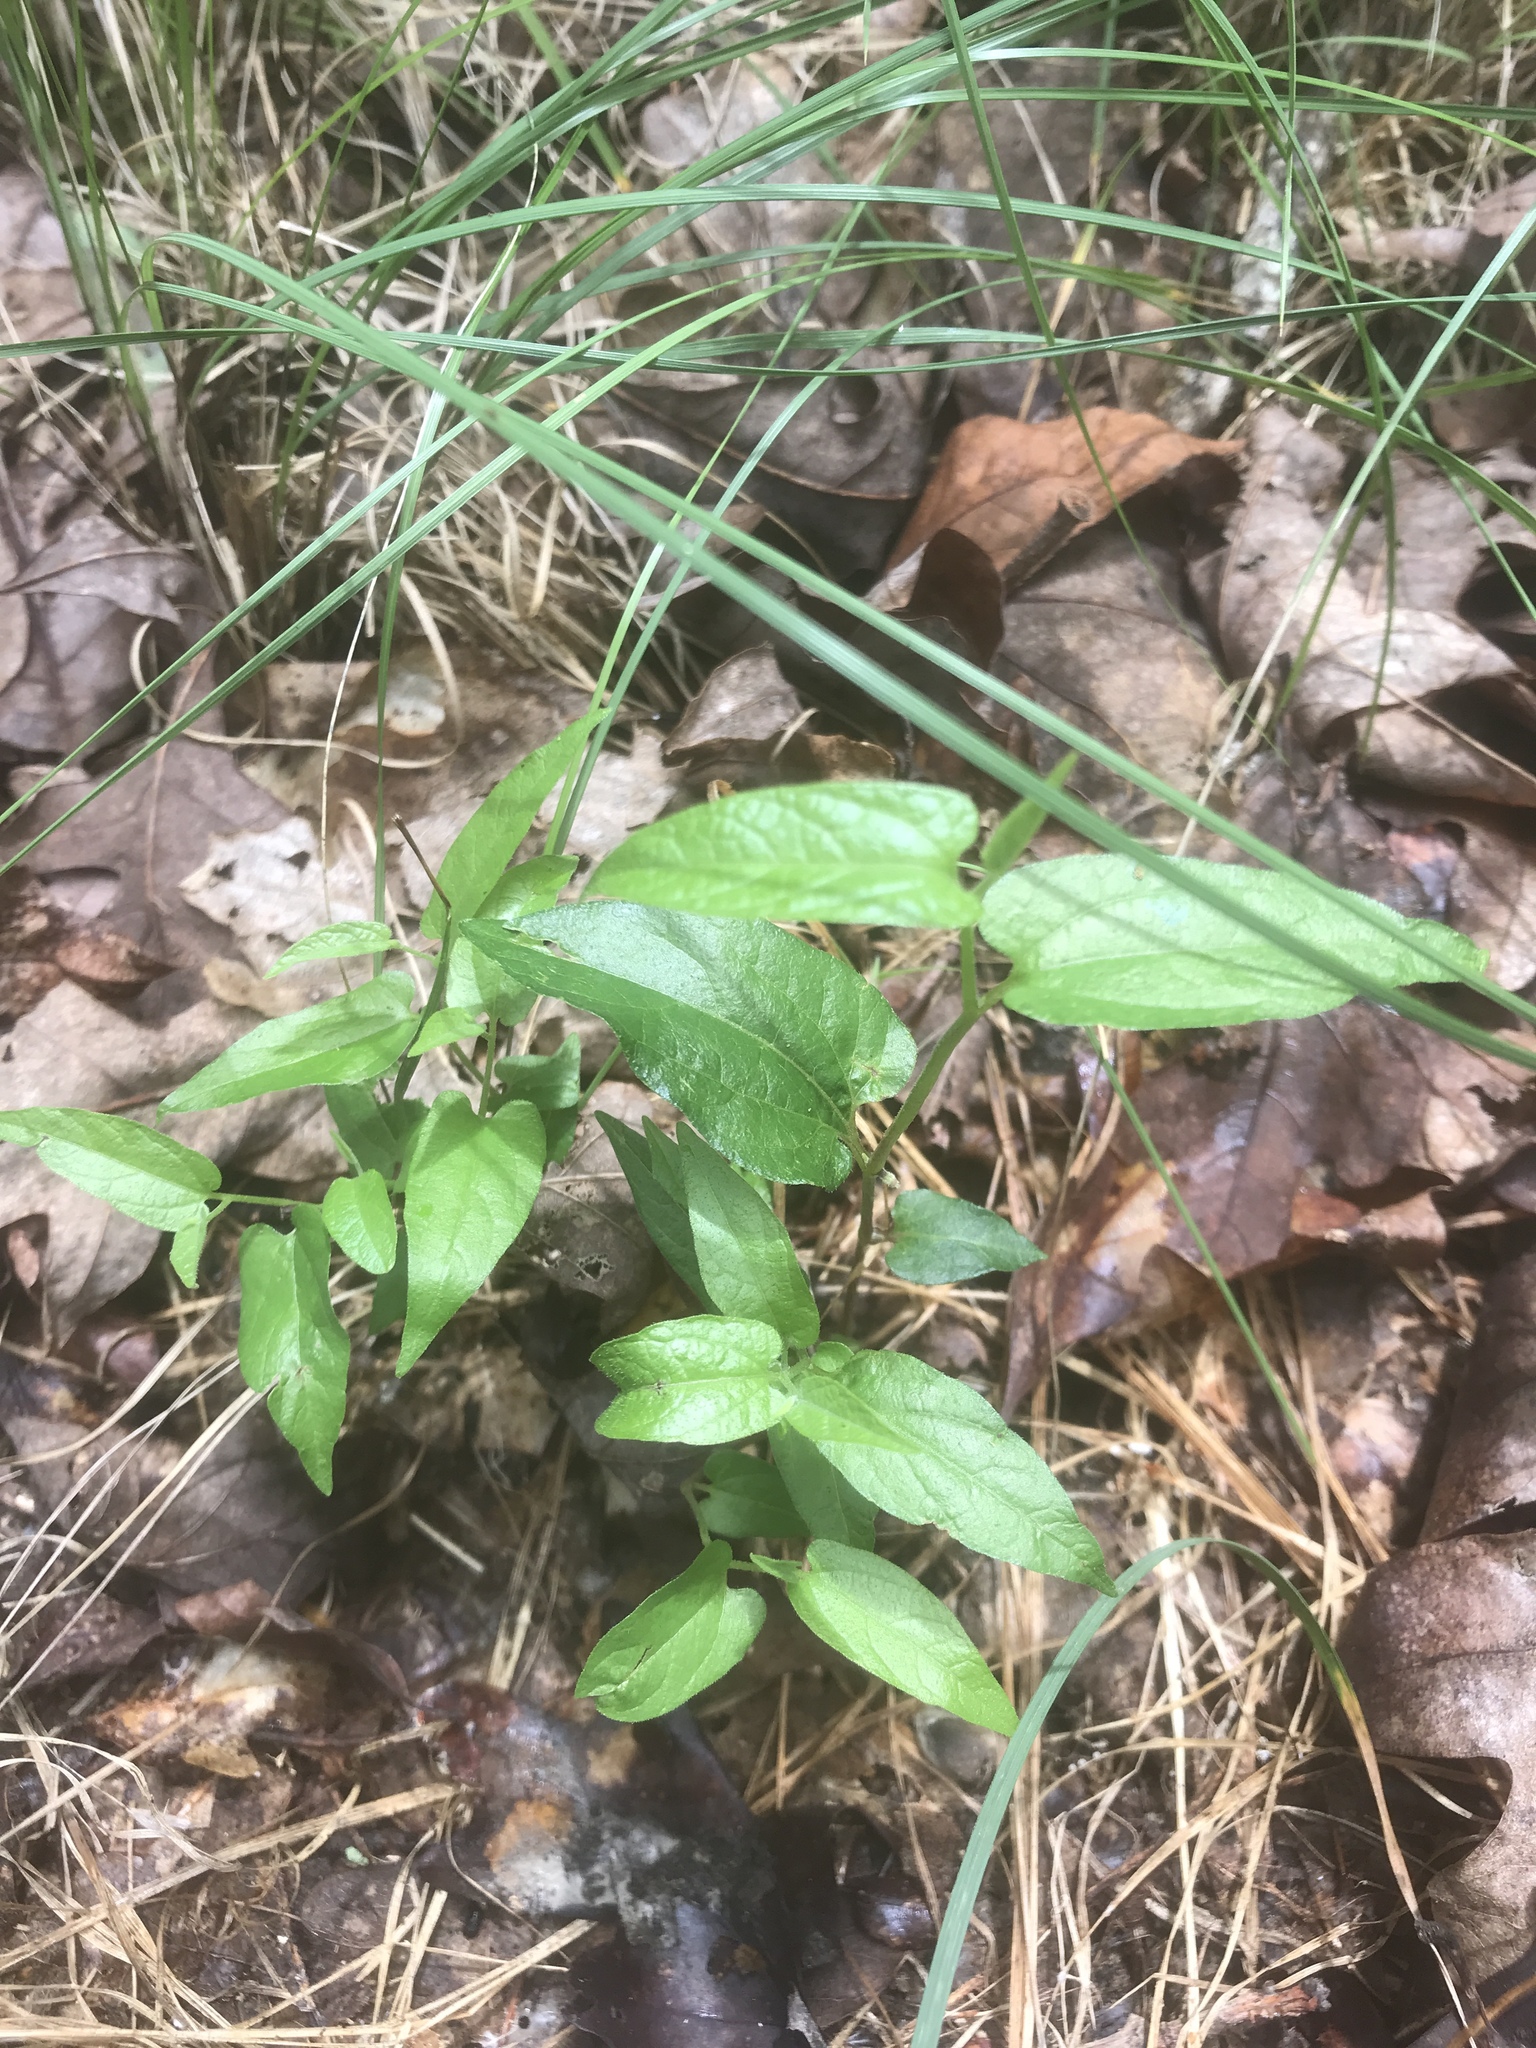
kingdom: Plantae
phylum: Tracheophyta
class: Magnoliopsida
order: Piperales
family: Aristolochiaceae
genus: Endodeca
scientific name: Endodeca serpentaria
